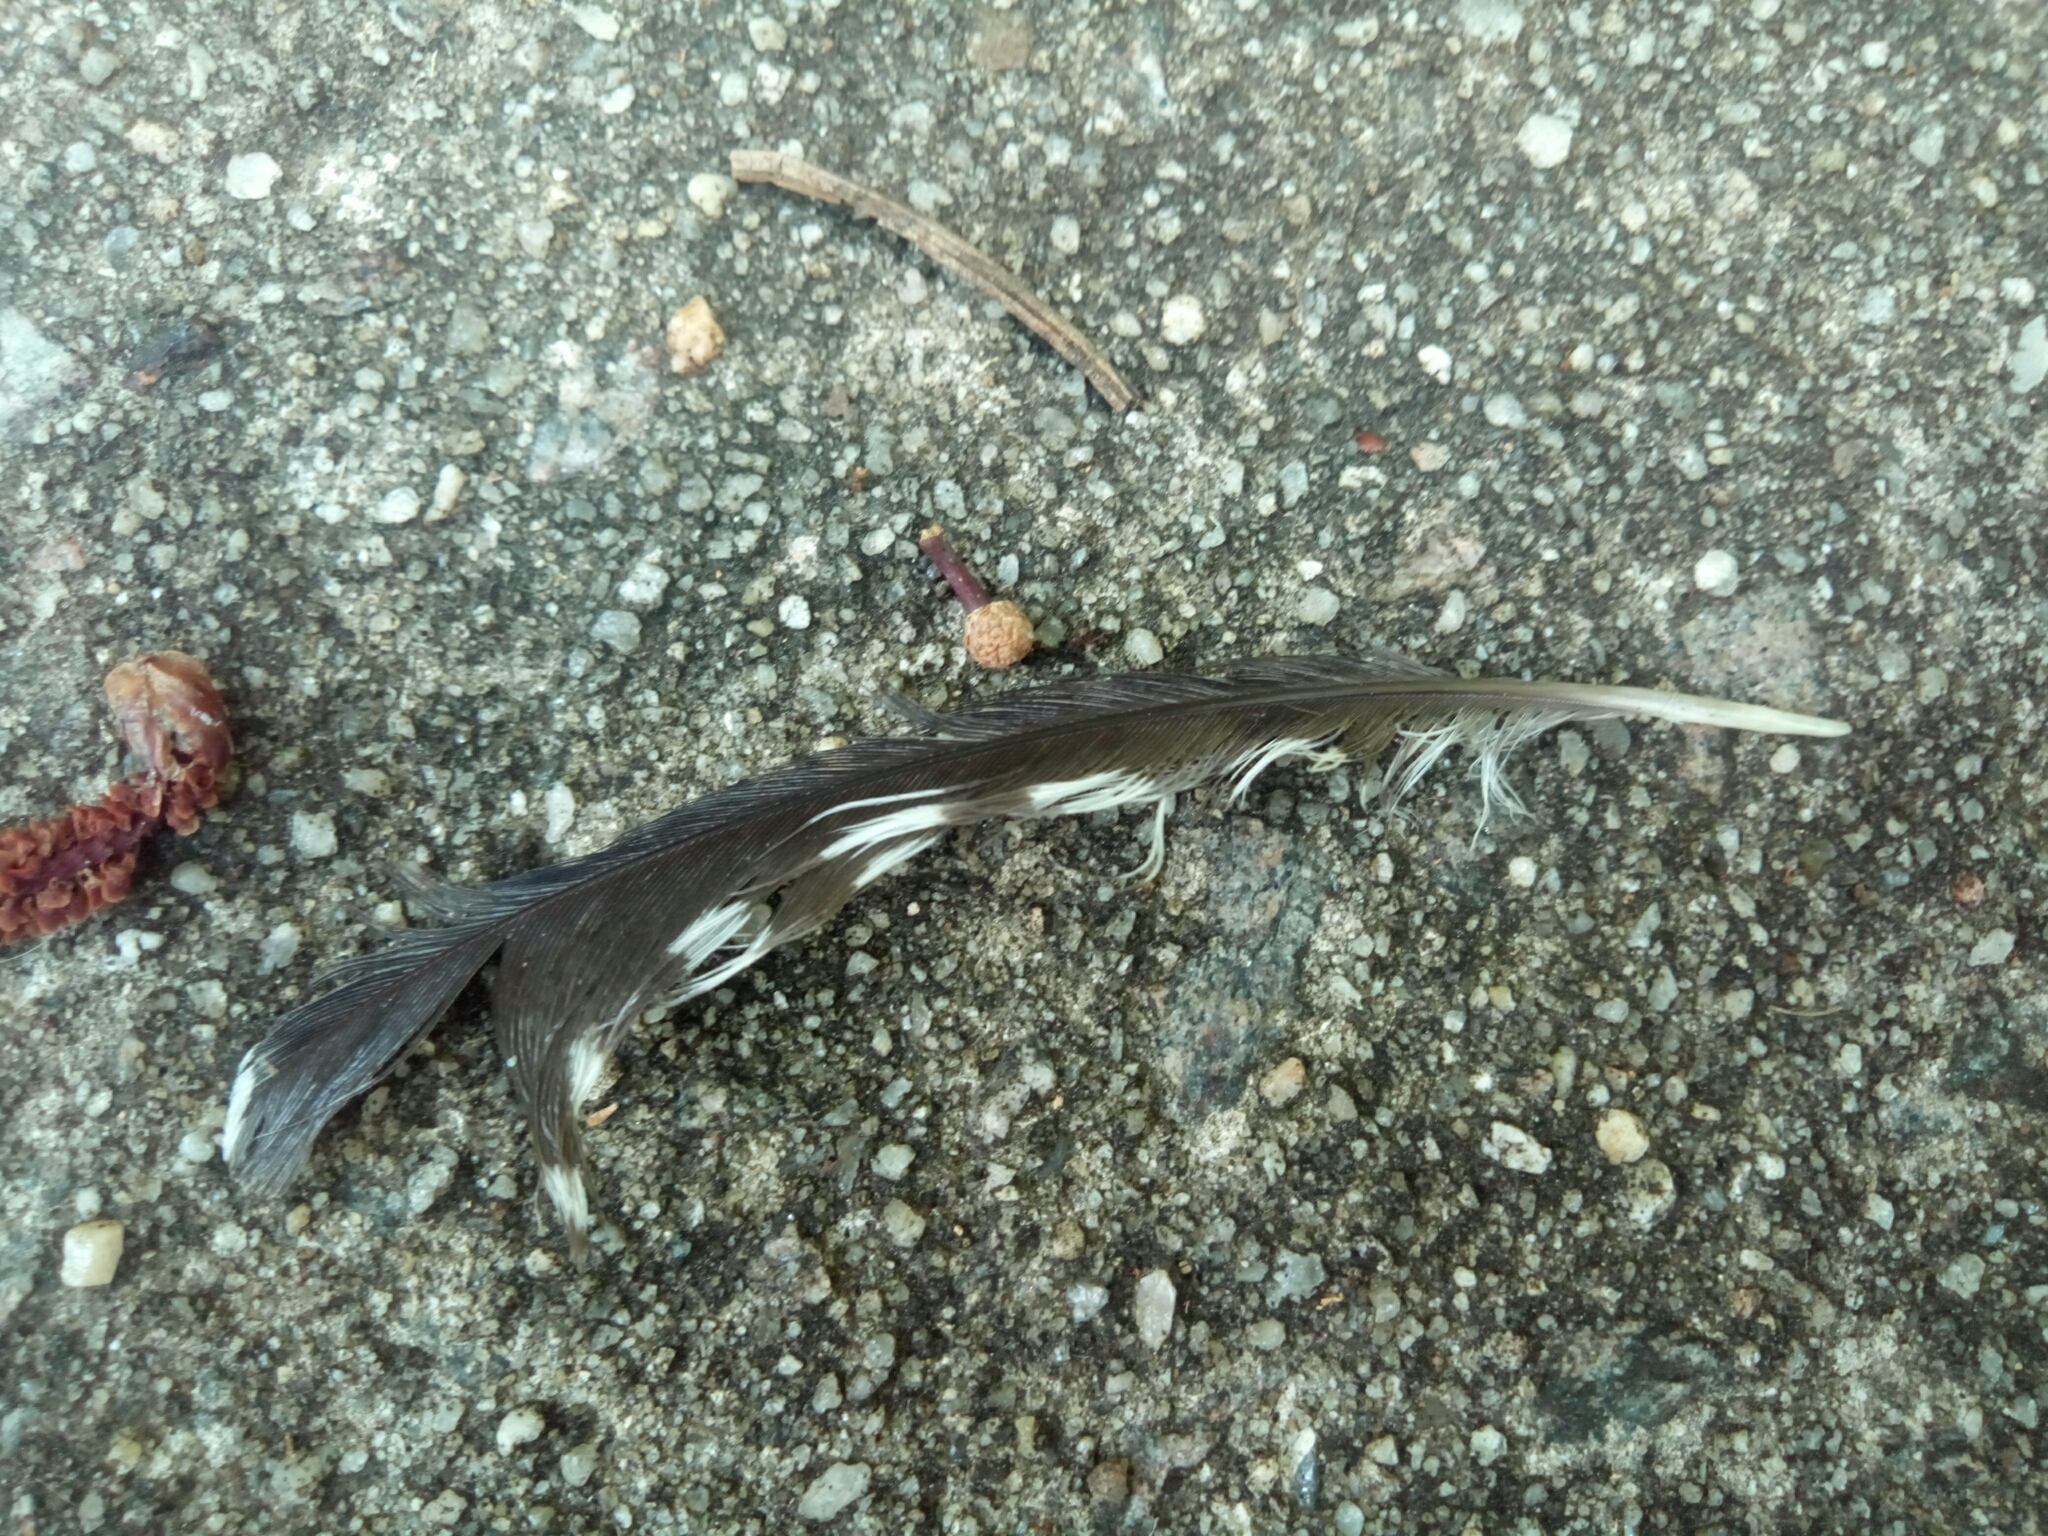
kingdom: Animalia
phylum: Chordata
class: Aves
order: Piciformes
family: Picidae
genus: Melanerpes
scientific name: Melanerpes carolinus
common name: Red-bellied woodpecker
